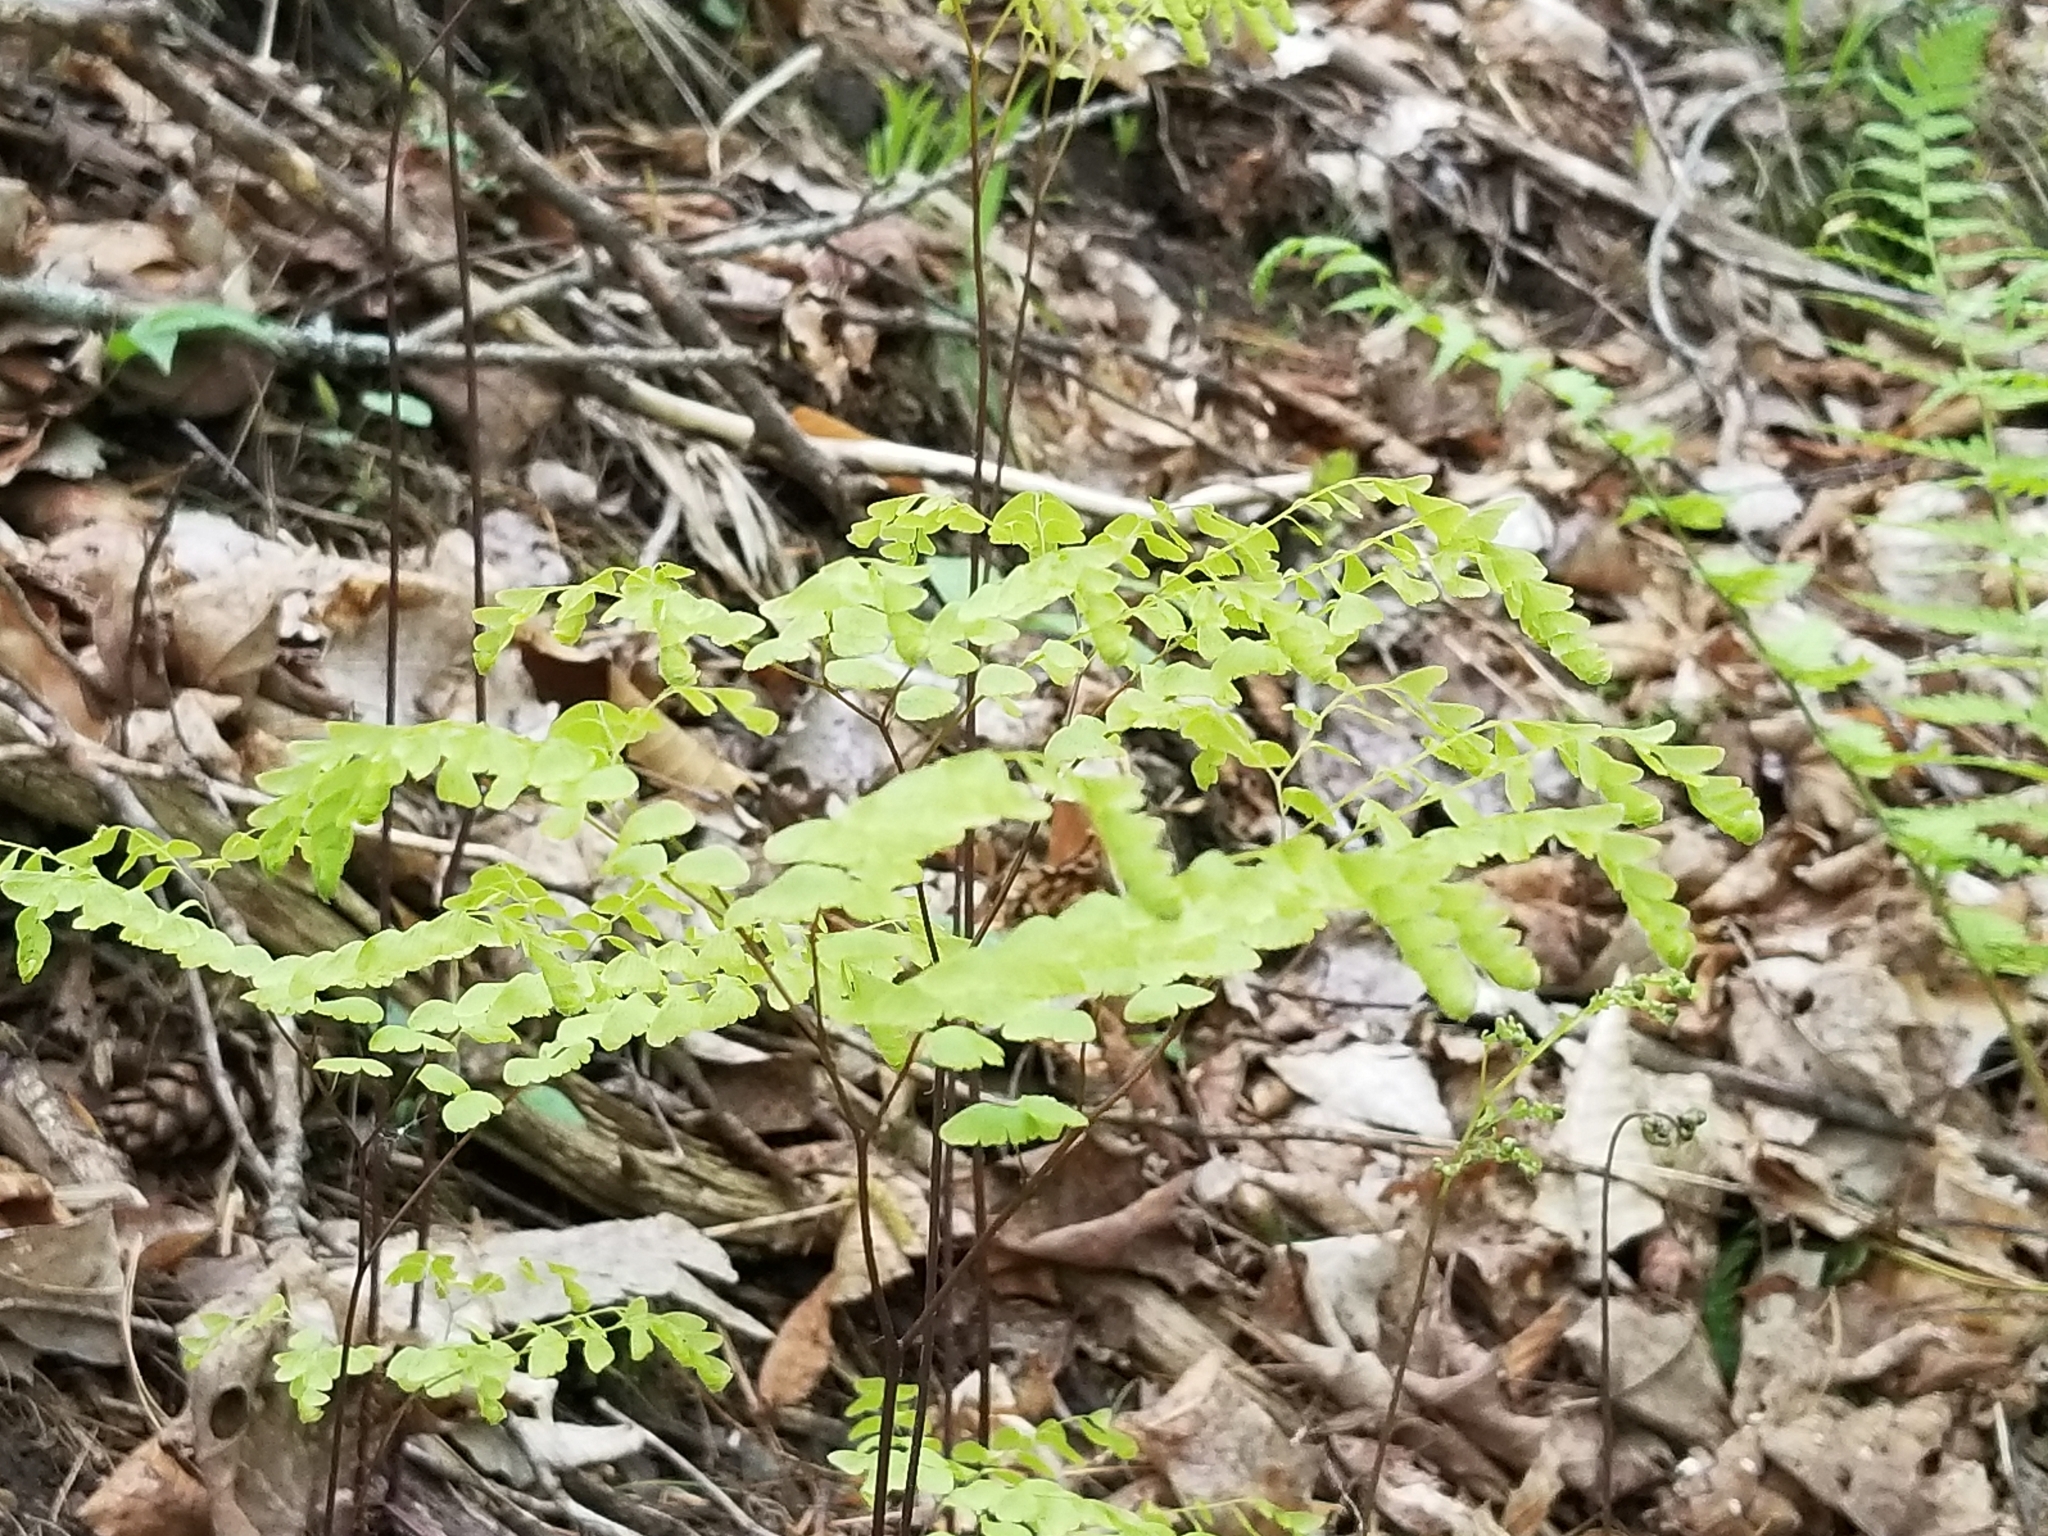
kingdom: Plantae
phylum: Tracheophyta
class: Polypodiopsida
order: Polypodiales
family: Pteridaceae
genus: Adiantum
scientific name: Adiantum pedatum
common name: Five-finger fern
